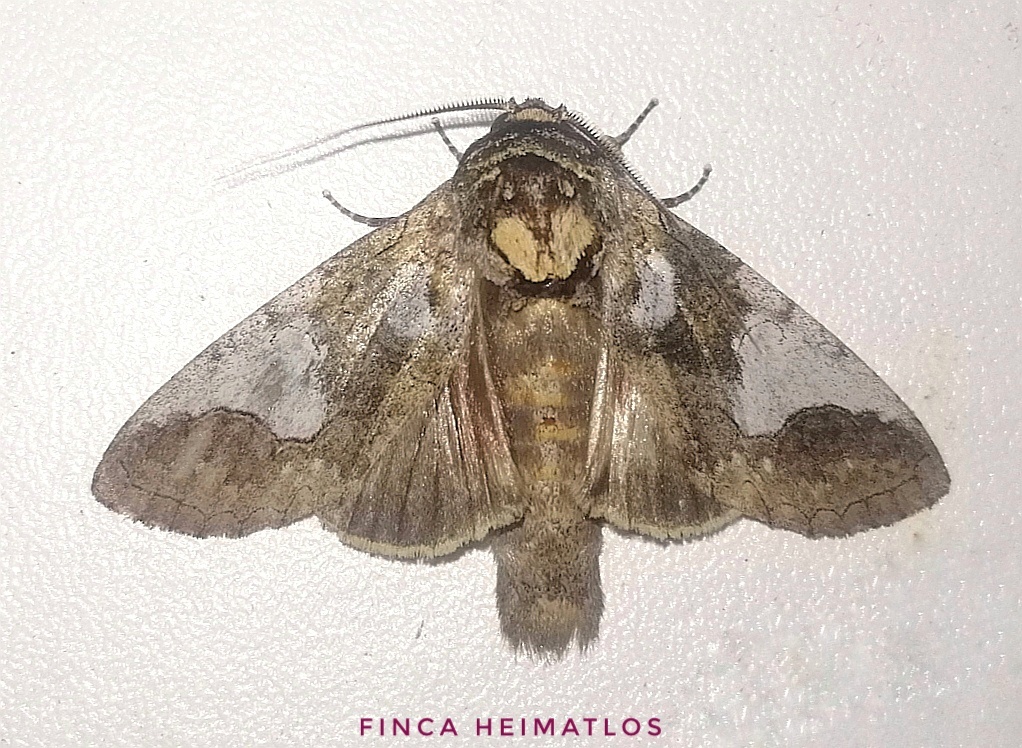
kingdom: Animalia
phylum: Arthropoda
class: Insecta
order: Lepidoptera
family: Notodontidae
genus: Rifargia
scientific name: Rifargia apella
